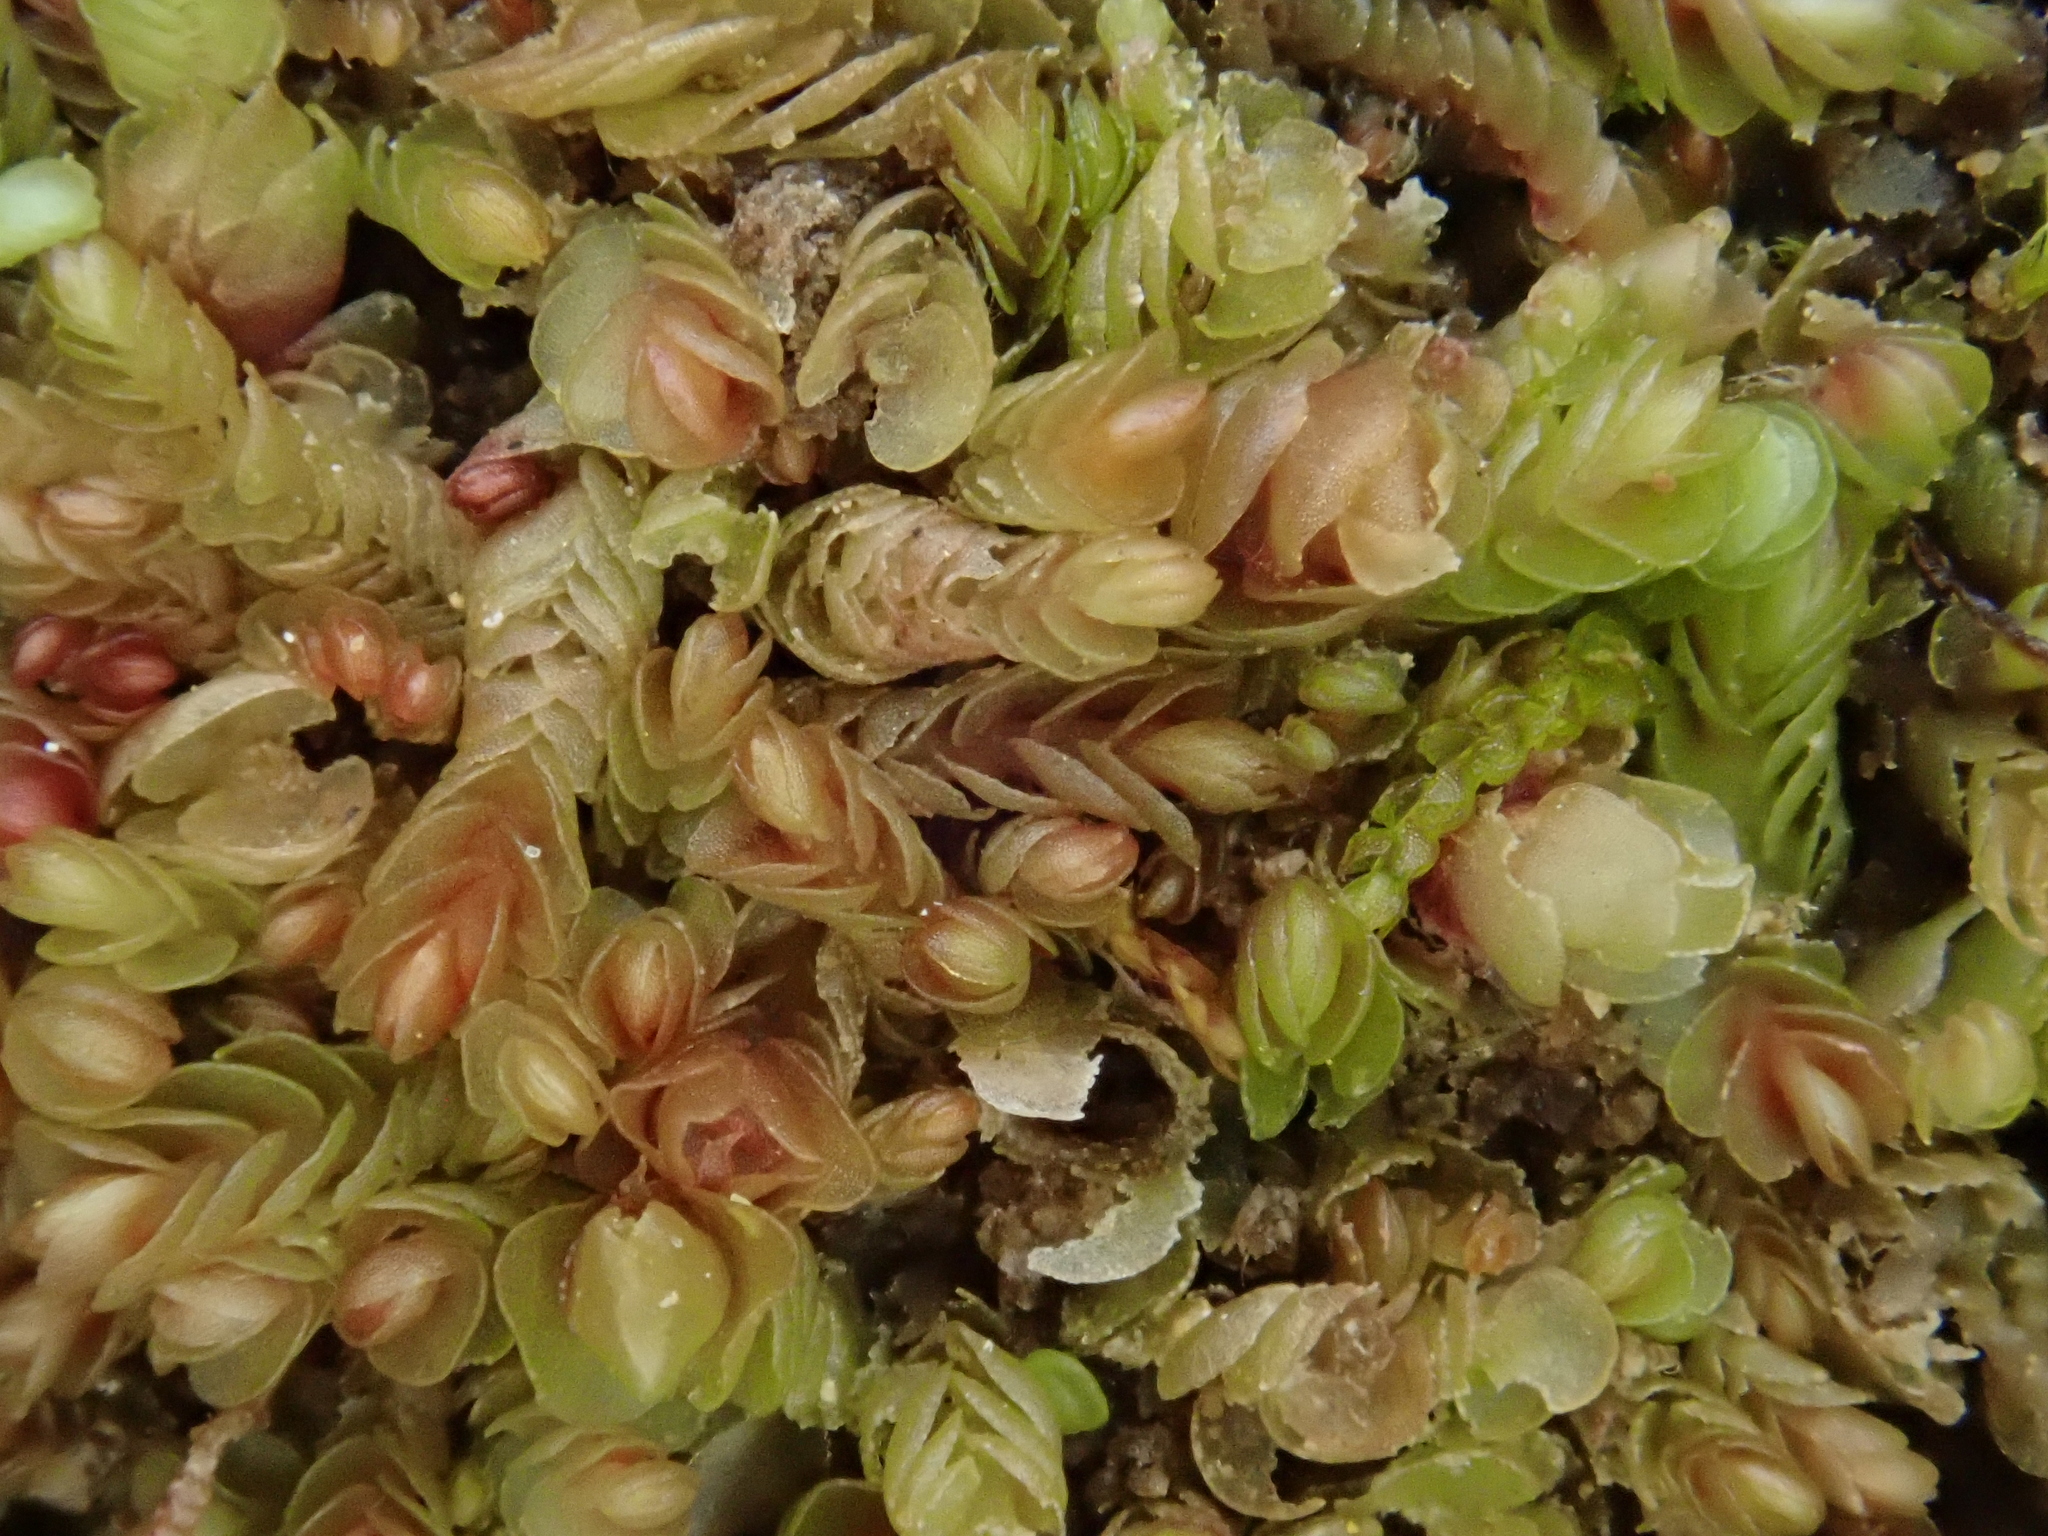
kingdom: Plantae
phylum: Marchantiophyta
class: Jungermanniopsida
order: Jungermanniales
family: Gymnomitriaceae
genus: Nardia
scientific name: Nardia scalaris
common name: Ladder flapwort
